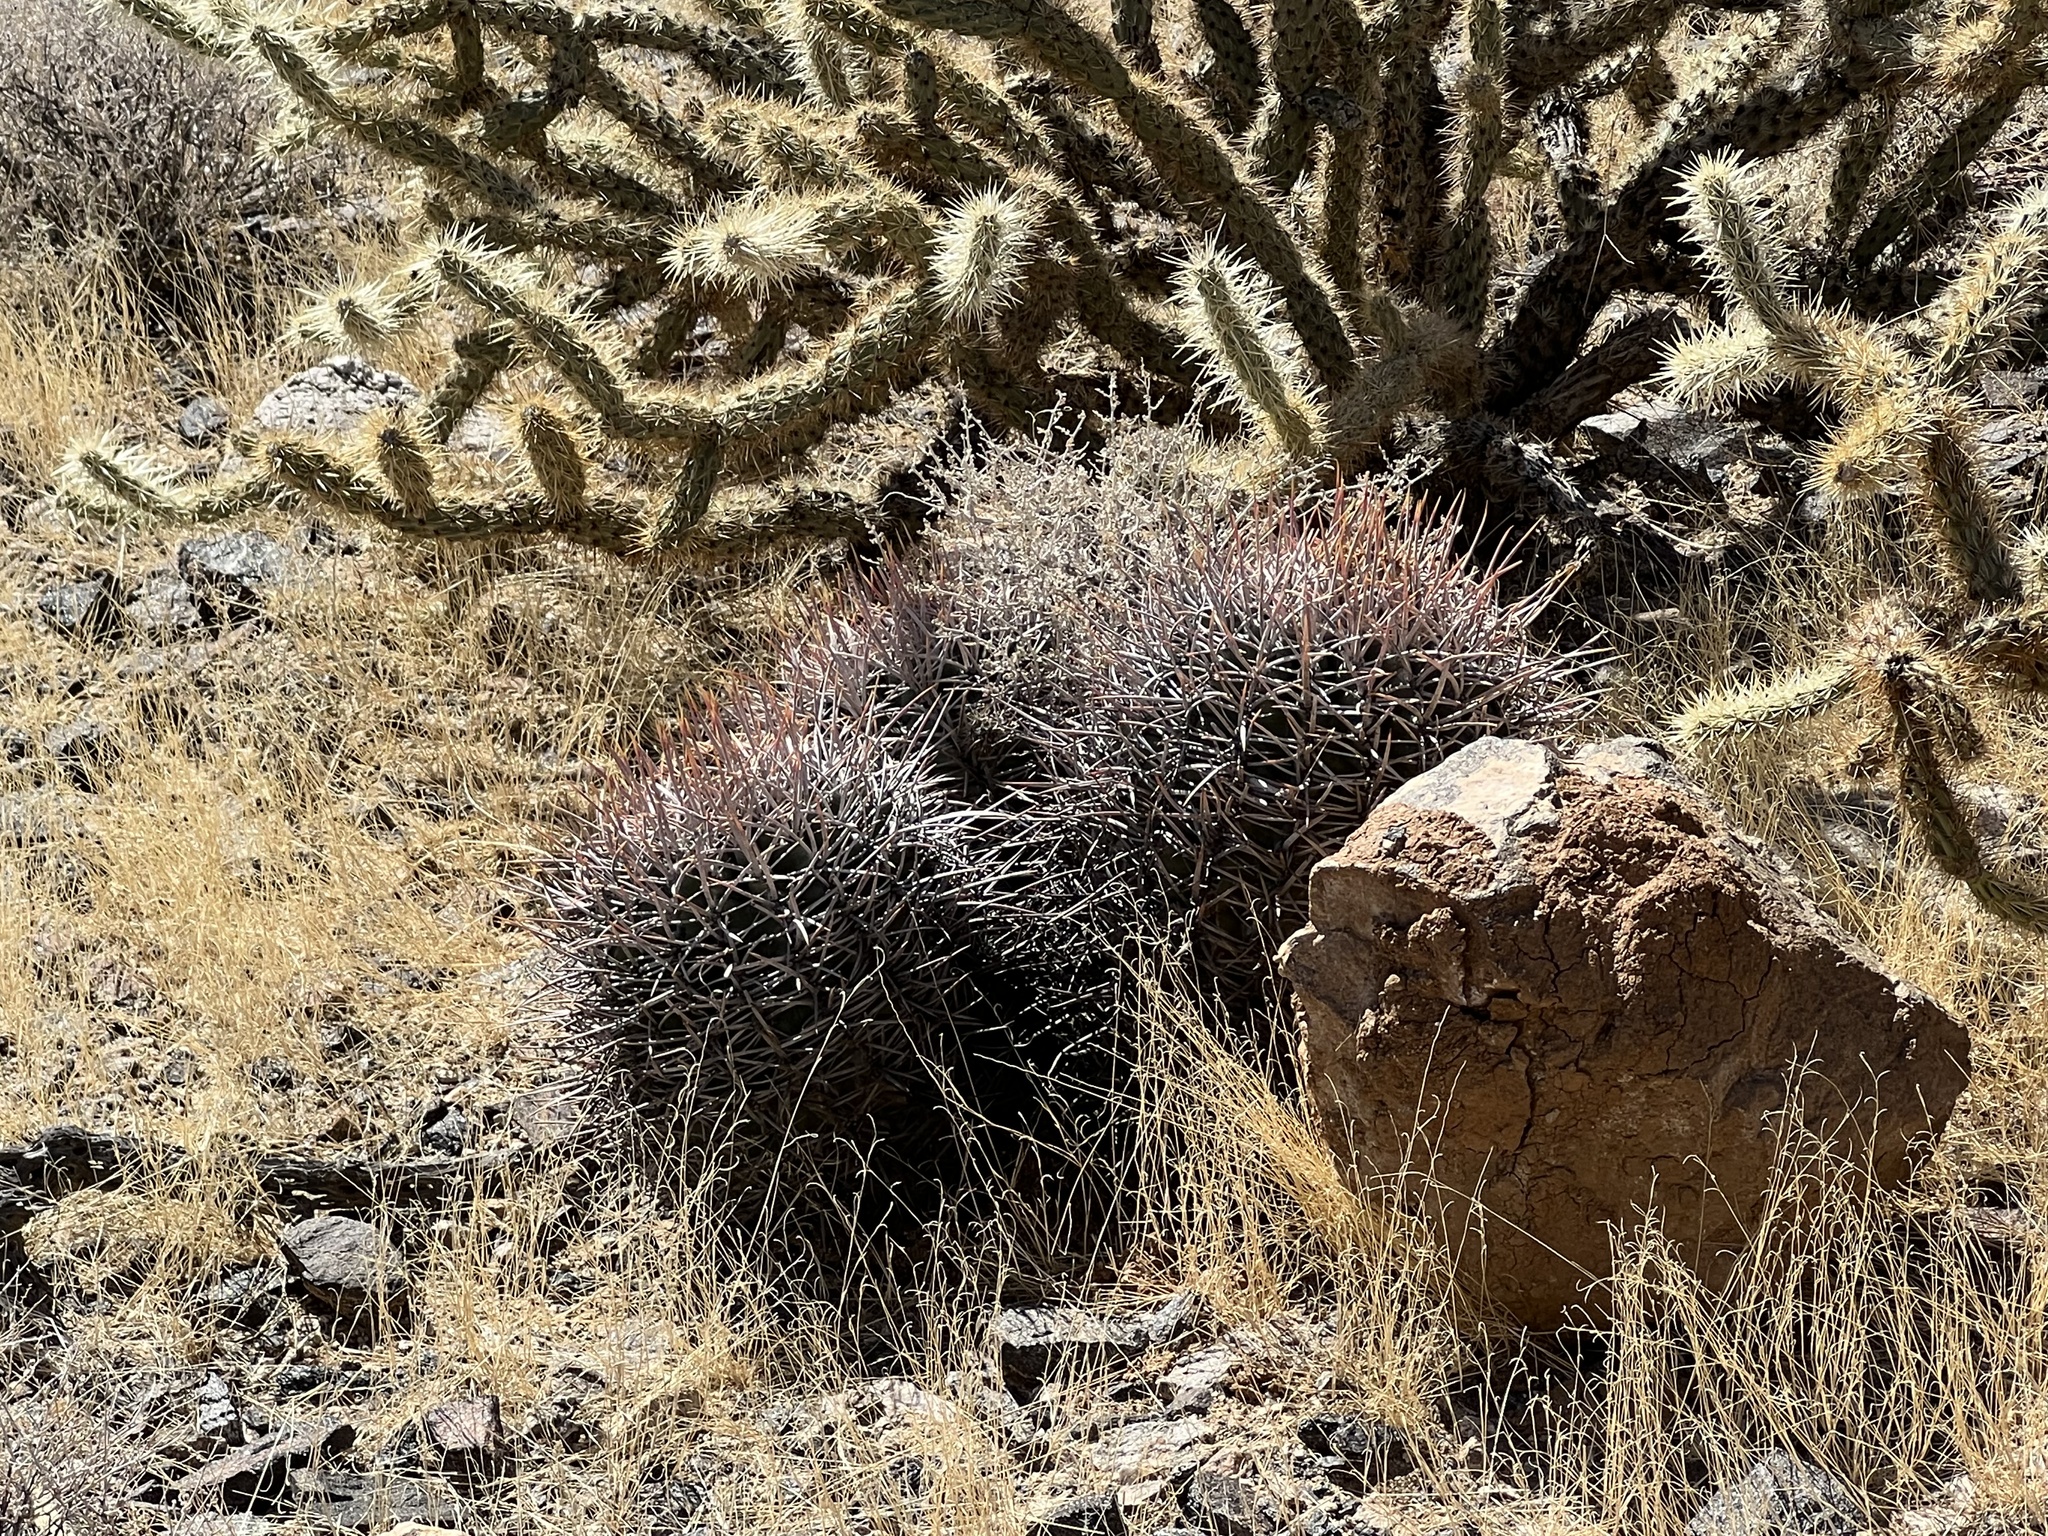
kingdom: Plantae
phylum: Tracheophyta
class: Magnoliopsida
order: Caryophyllales
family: Cactaceae
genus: Echinocactus
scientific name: Echinocactus polycephalus
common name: Cottontop cactus
